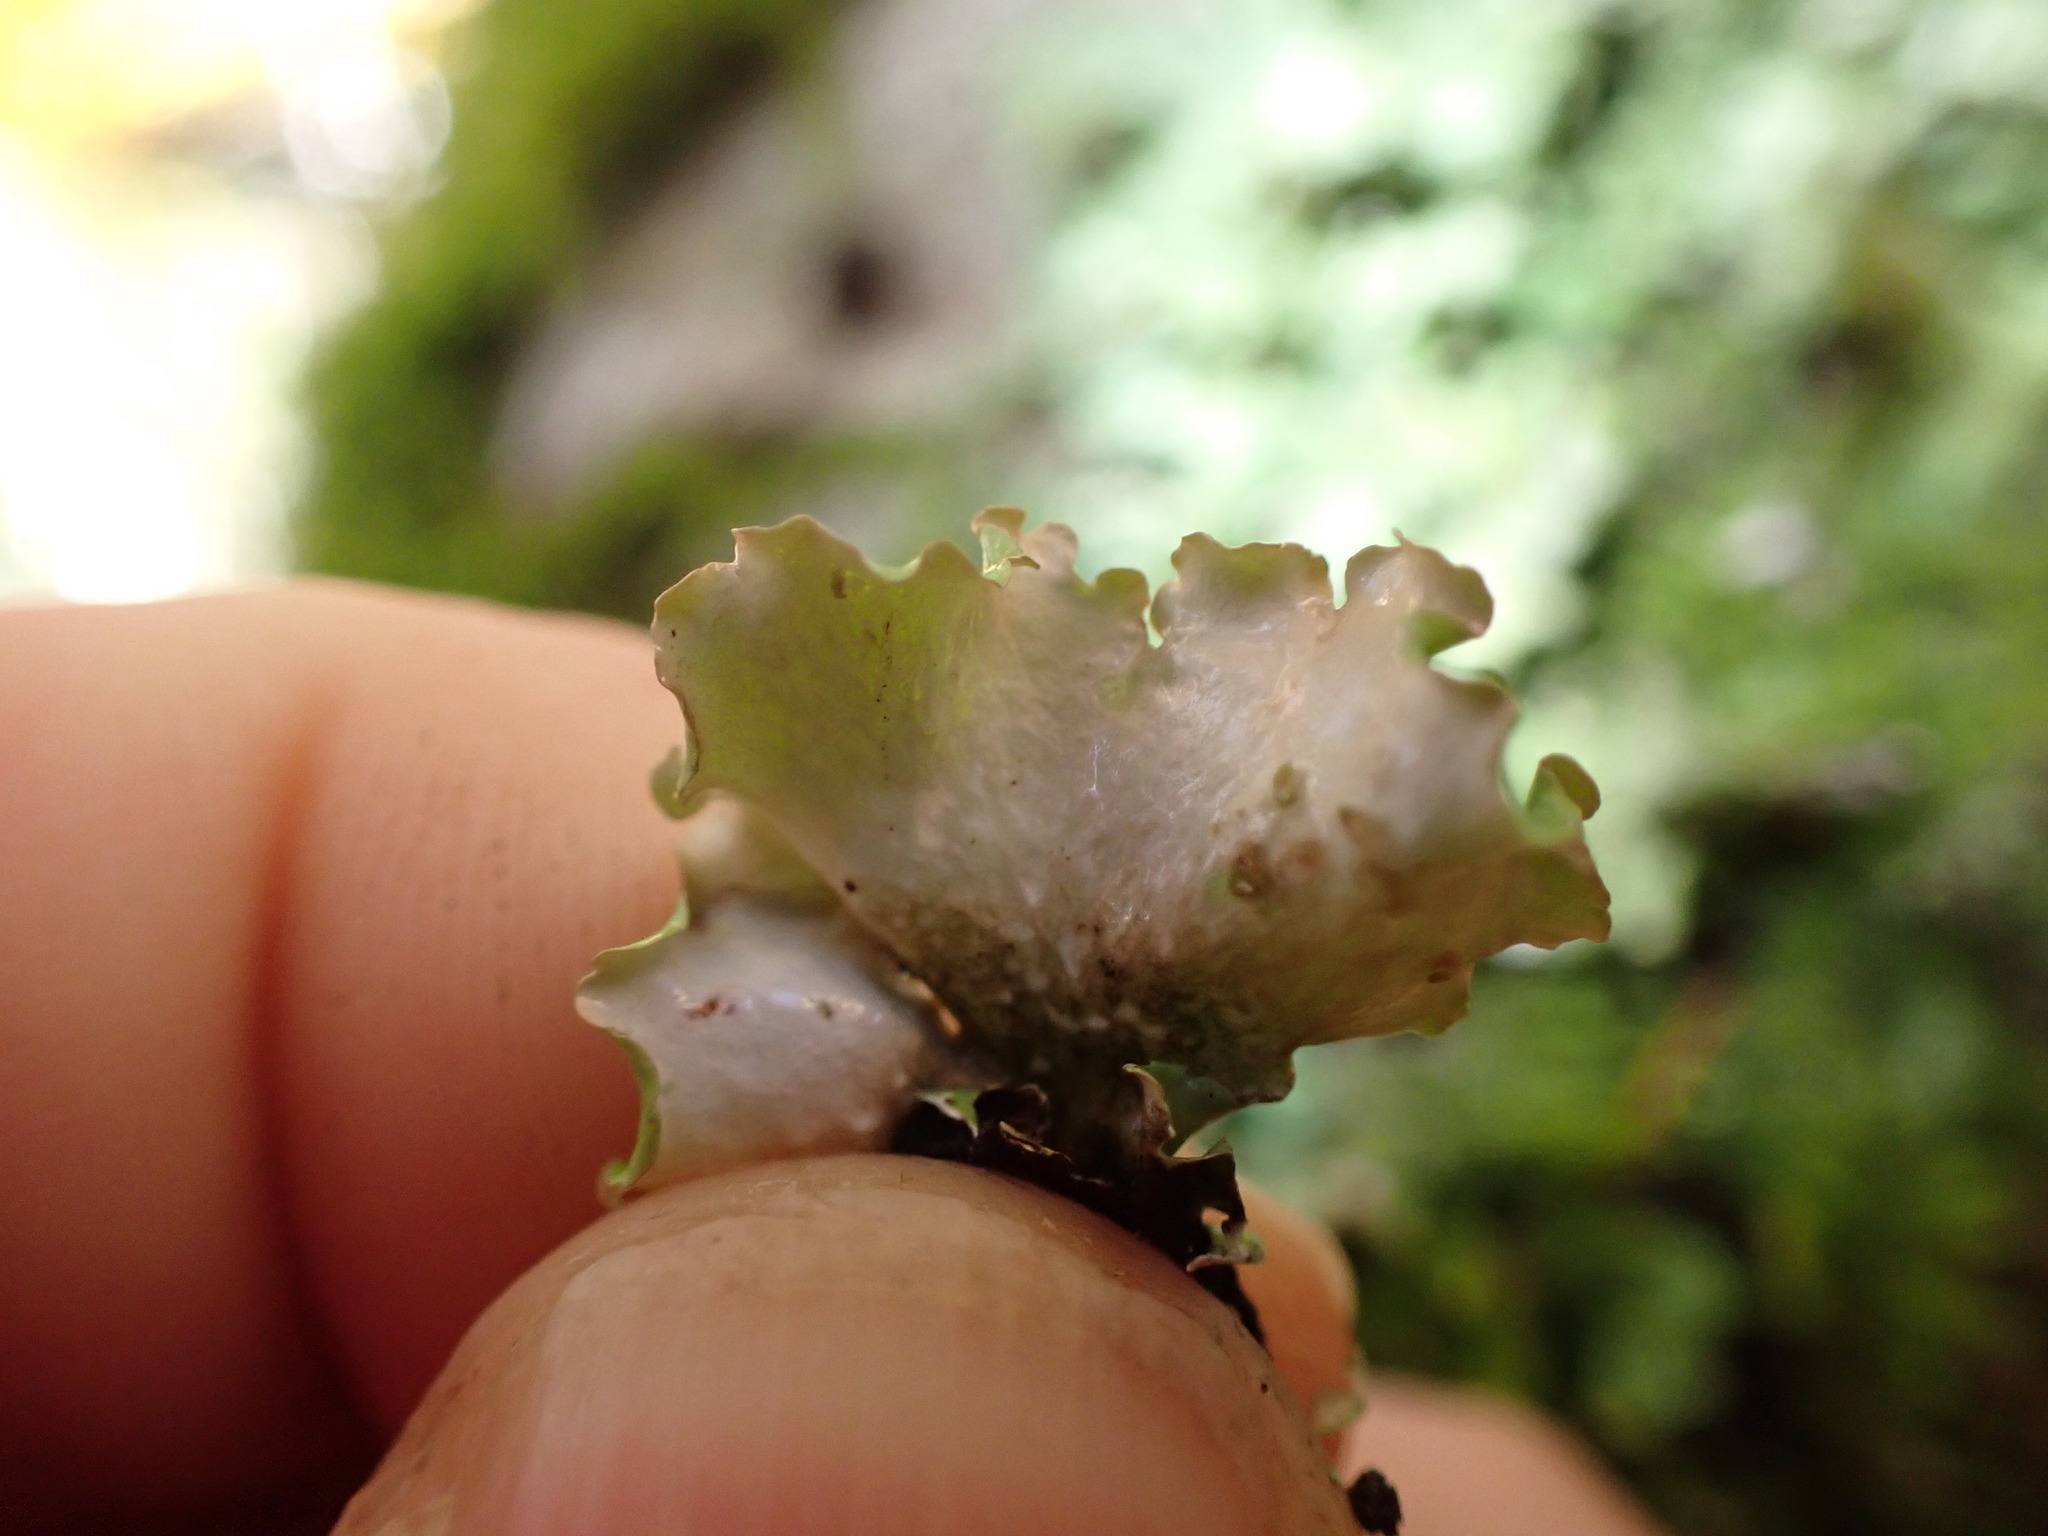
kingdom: Fungi
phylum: Ascomycota
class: Lecanoromycetes
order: Lecanorales
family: Parmeliaceae
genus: Cetrelia
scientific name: Cetrelia cetrarioides
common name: Speckled iceland lichen
